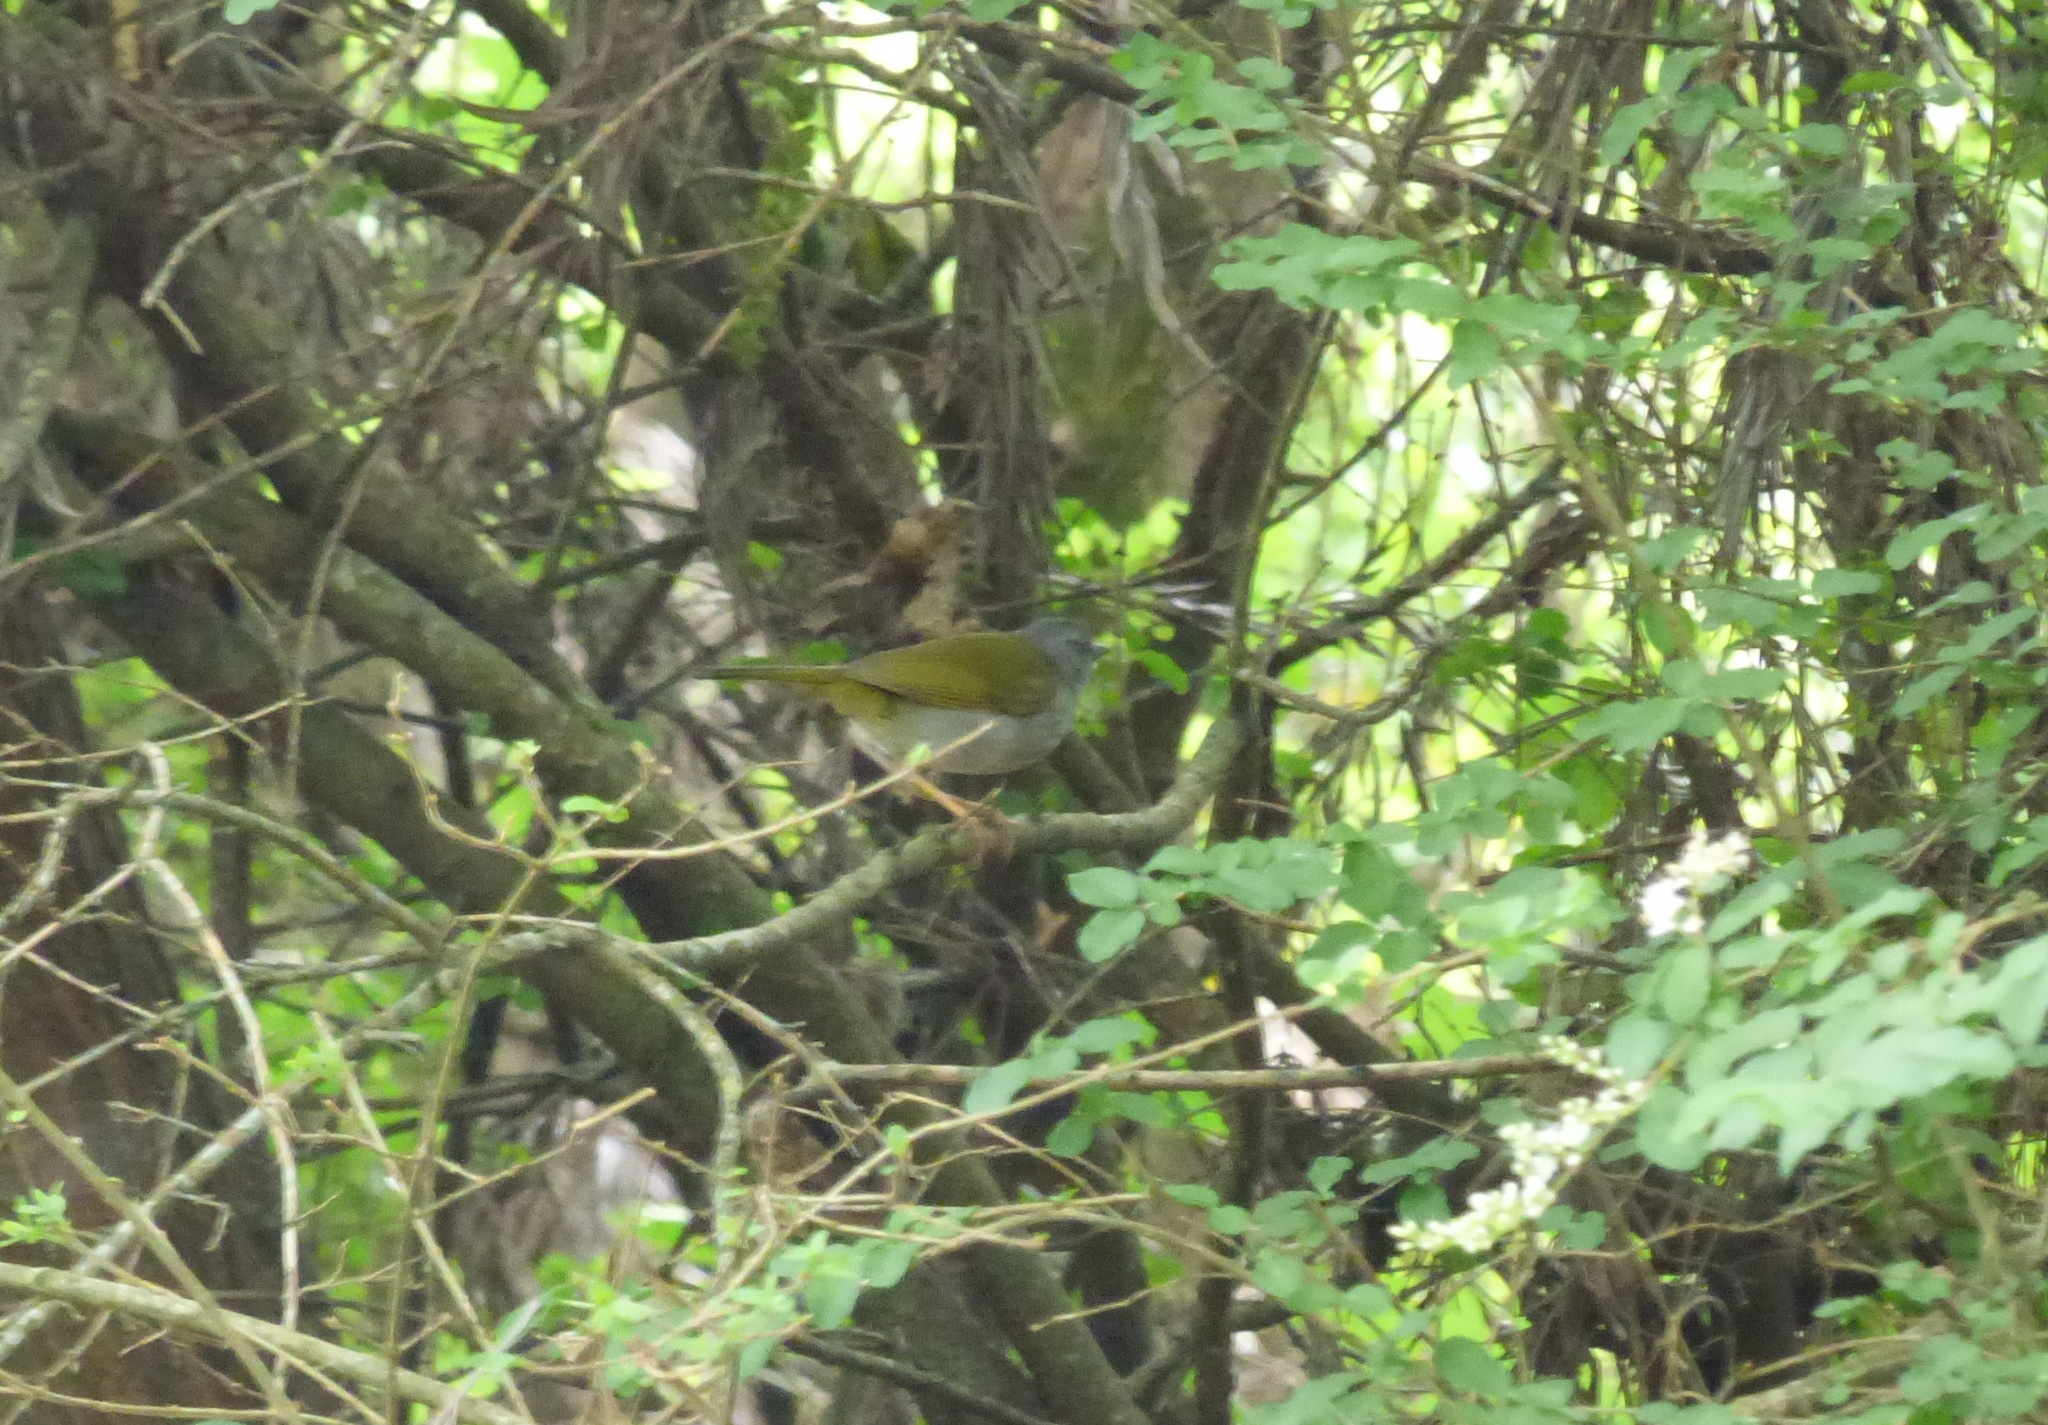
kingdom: Animalia
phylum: Chordata
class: Aves
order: Passeriformes
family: Parulidae
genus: Myiothlypis
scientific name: Myiothlypis leucoblephara
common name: White-rimmed warbler
